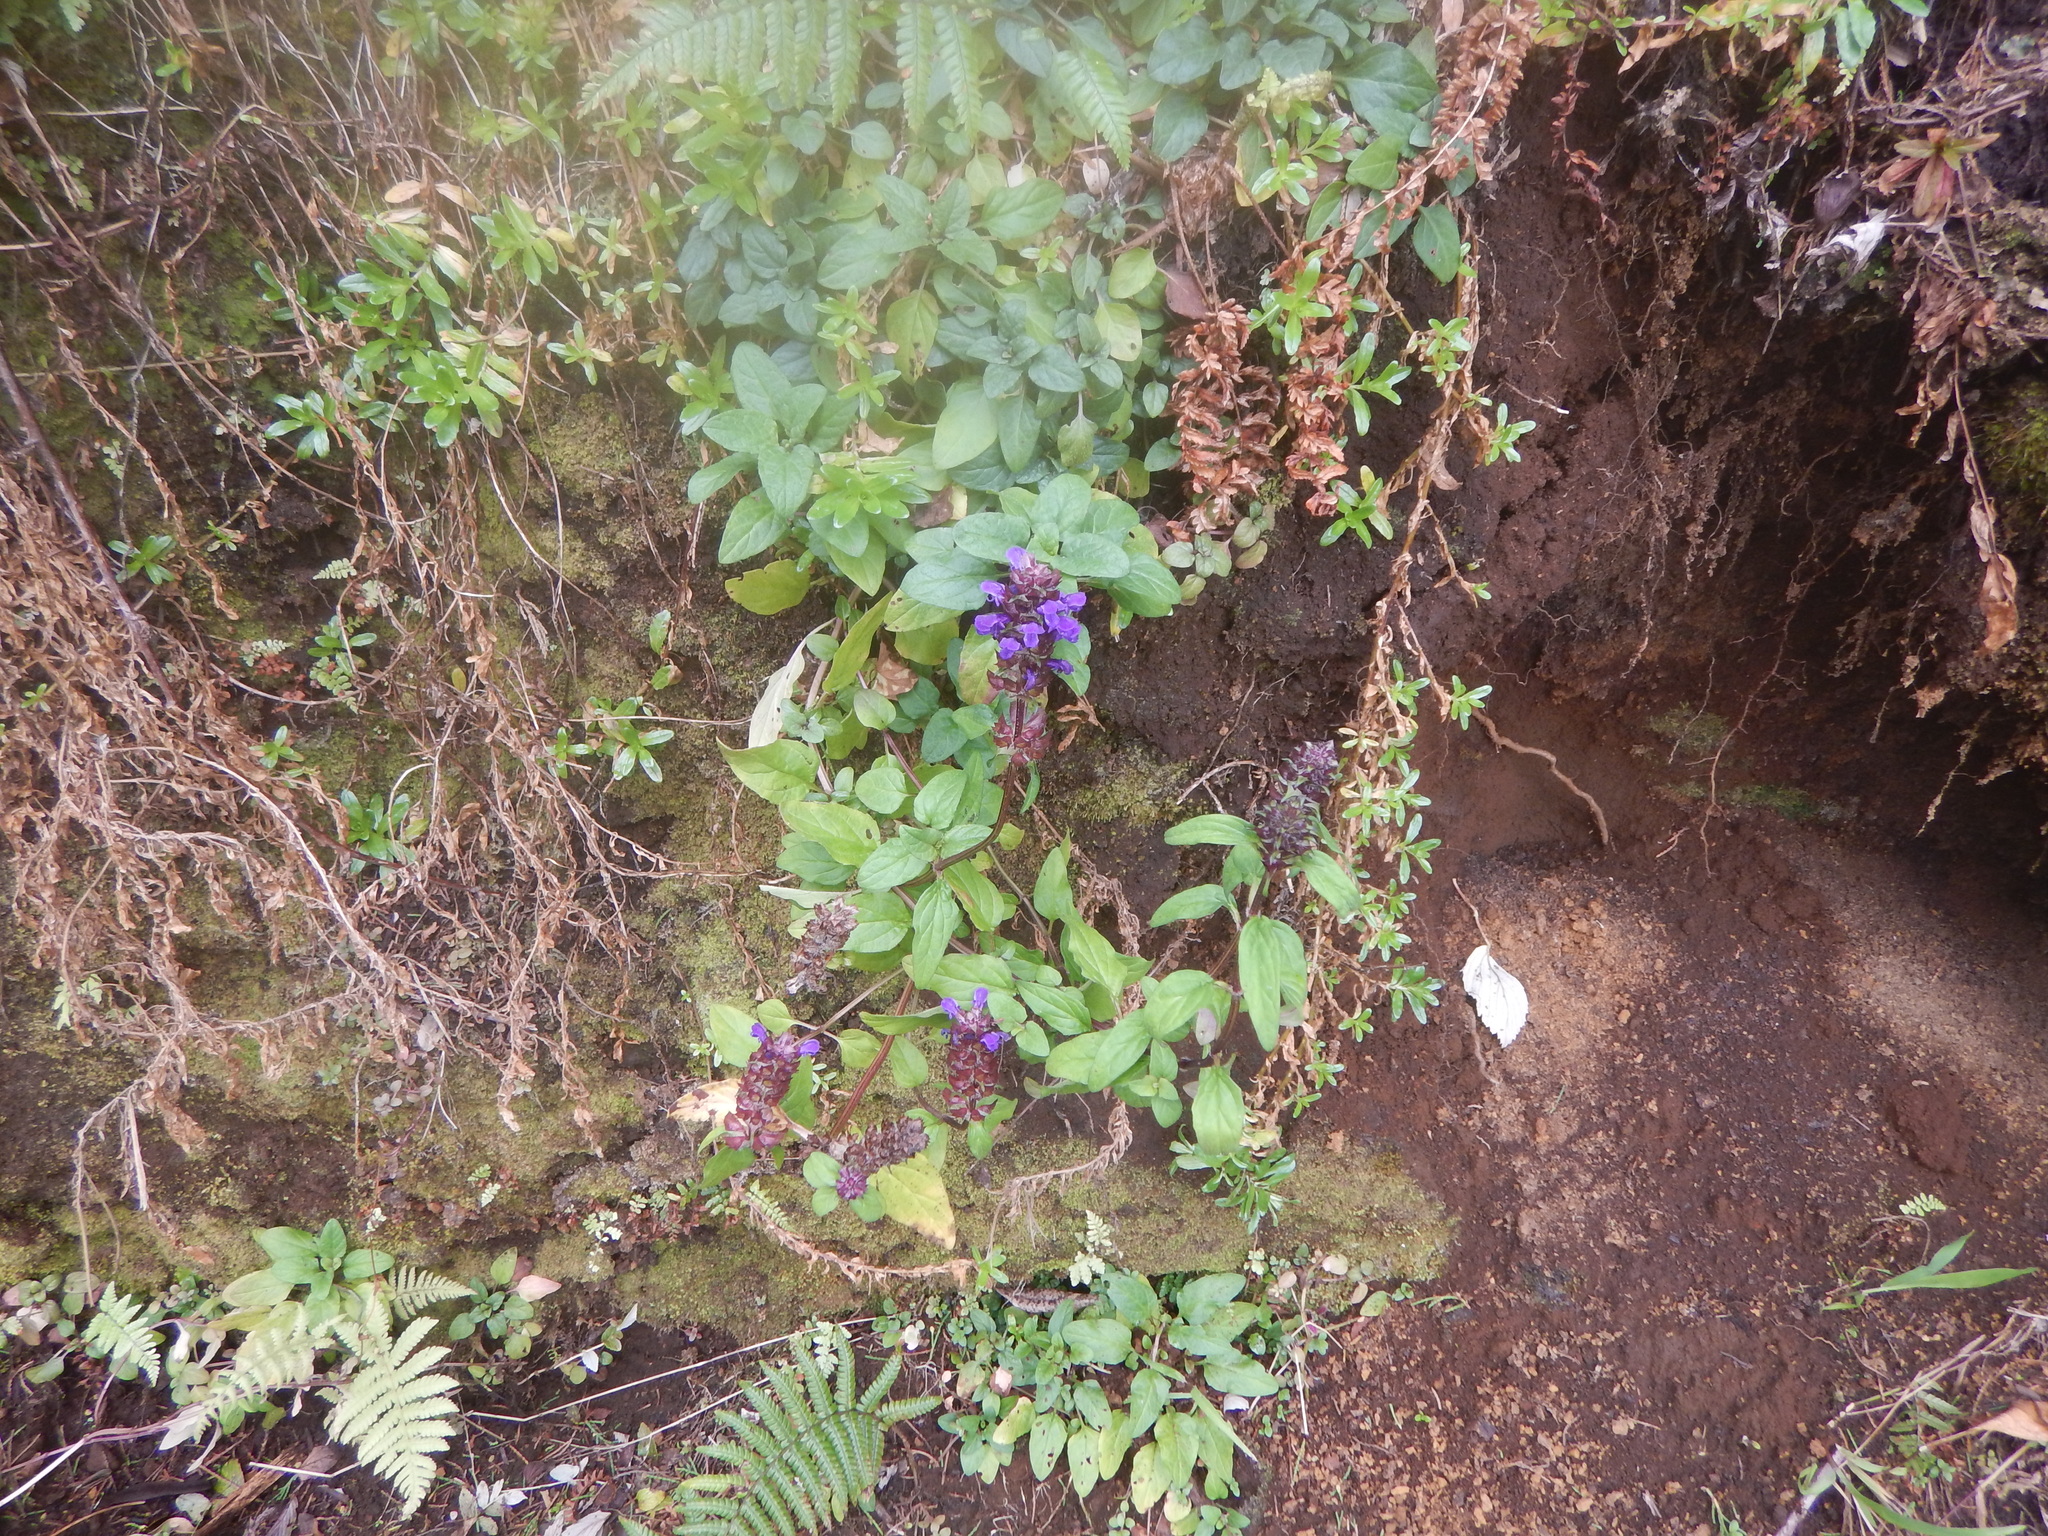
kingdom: Plantae
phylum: Tracheophyta
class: Magnoliopsida
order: Lamiales
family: Lamiaceae
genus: Prunella
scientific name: Prunella vulgaris
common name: Heal-all
